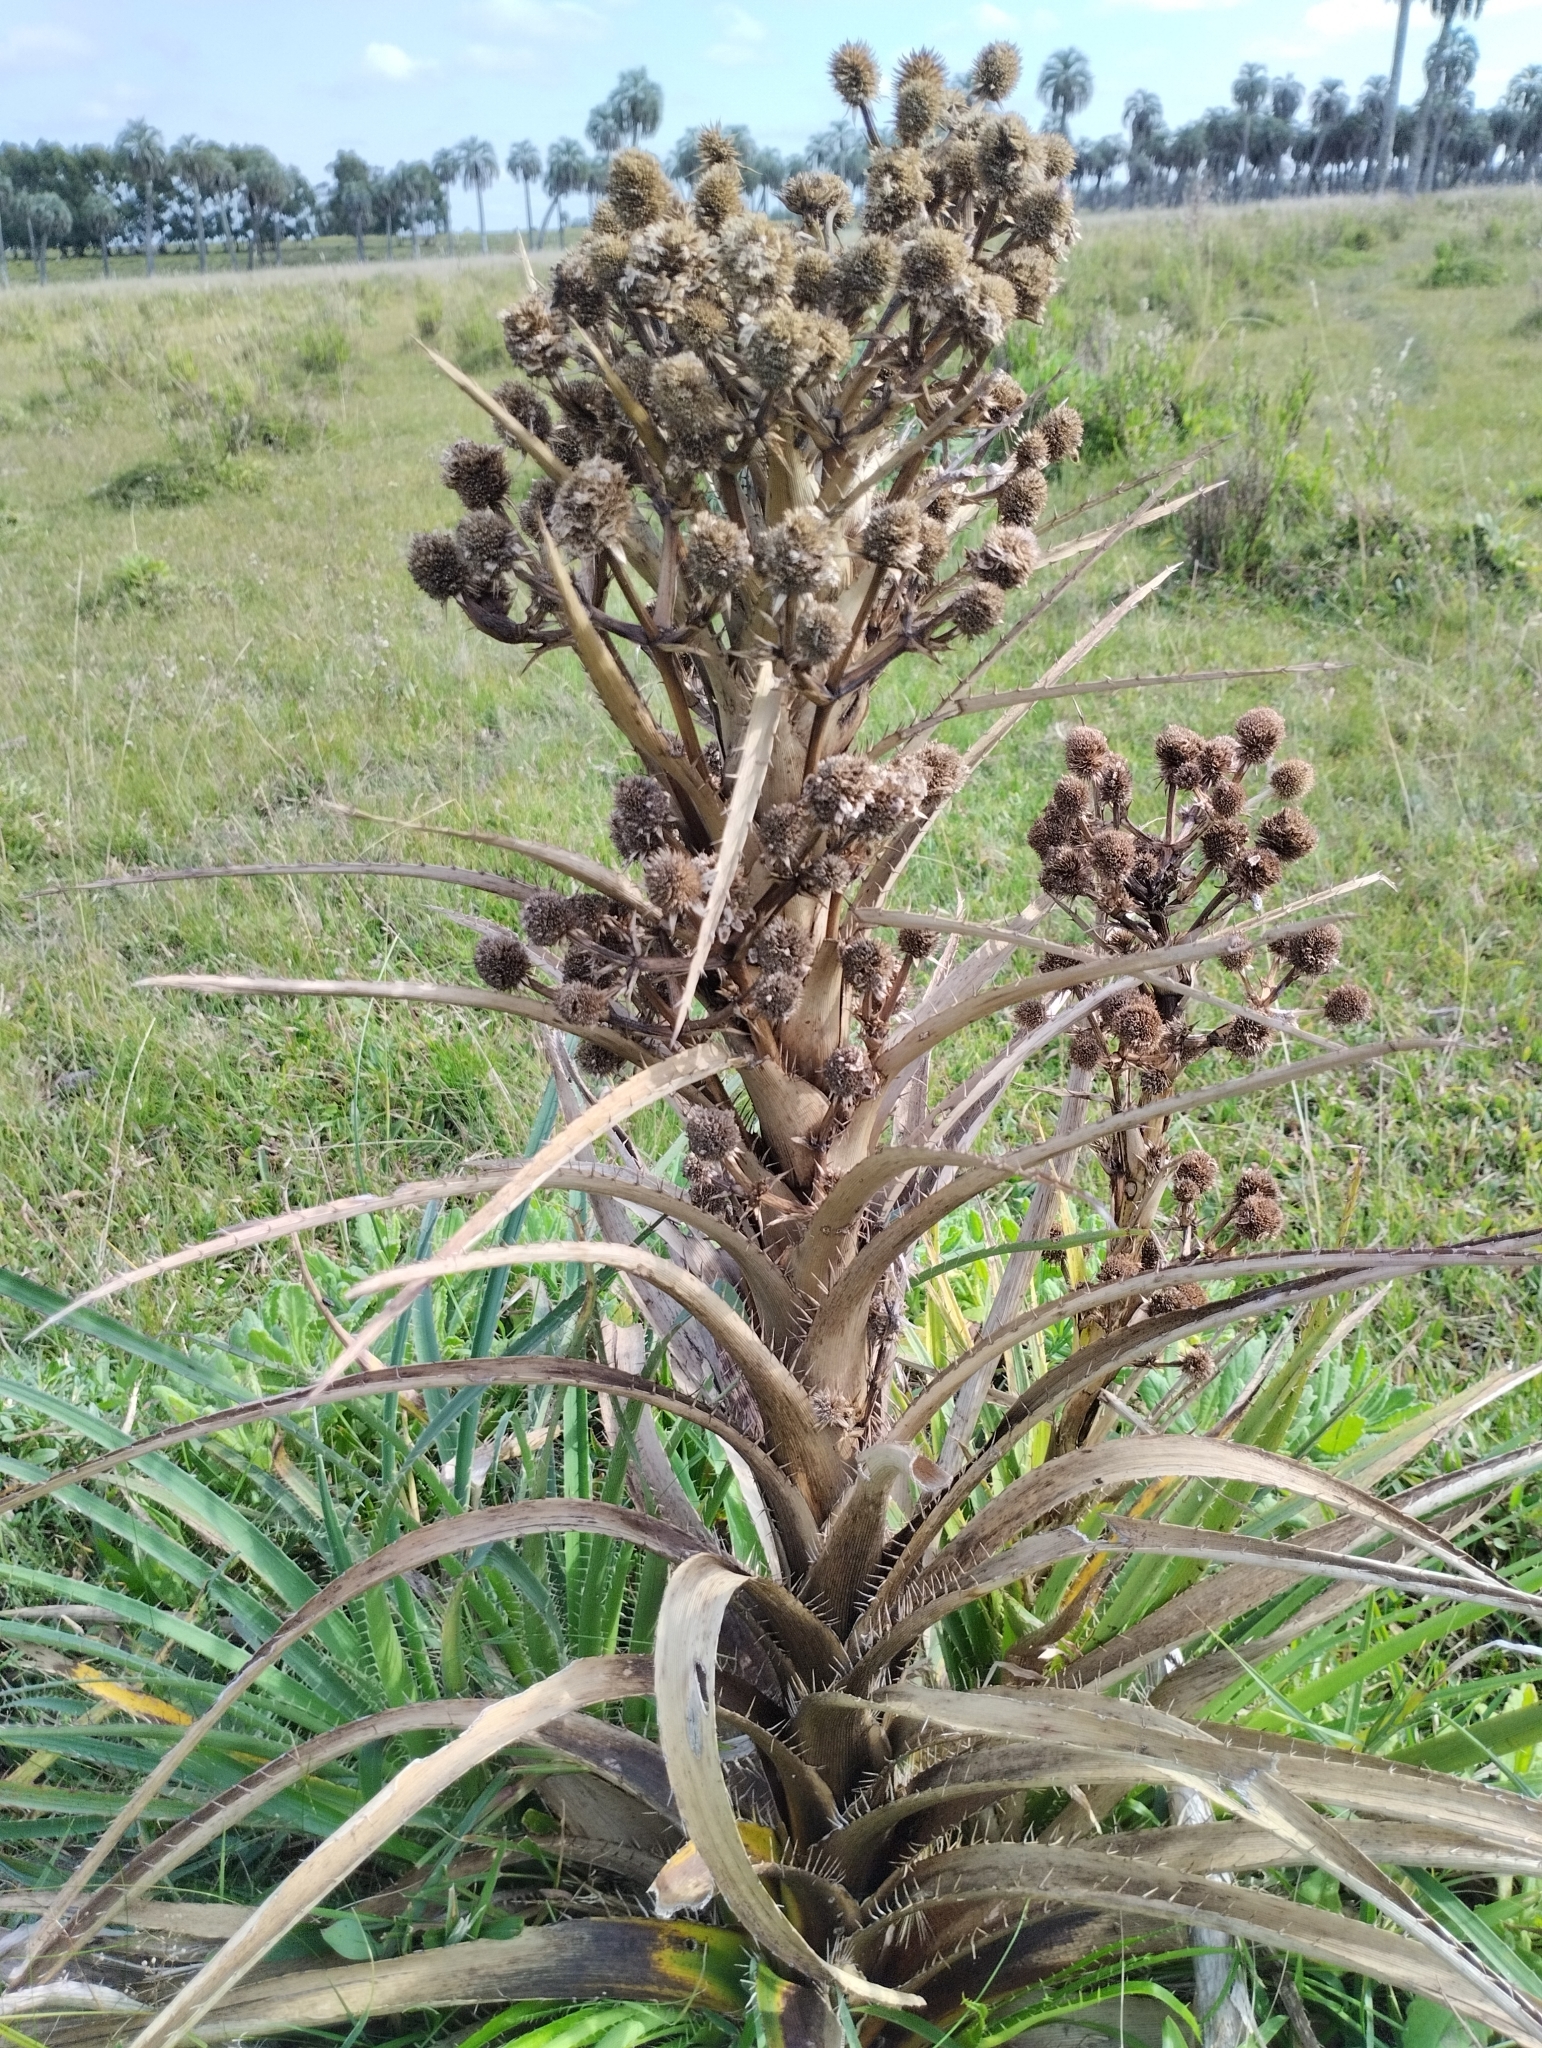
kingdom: Plantae
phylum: Tracheophyta
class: Magnoliopsida
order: Apiales
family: Apiaceae
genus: Eryngium
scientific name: Eryngium eburneum
